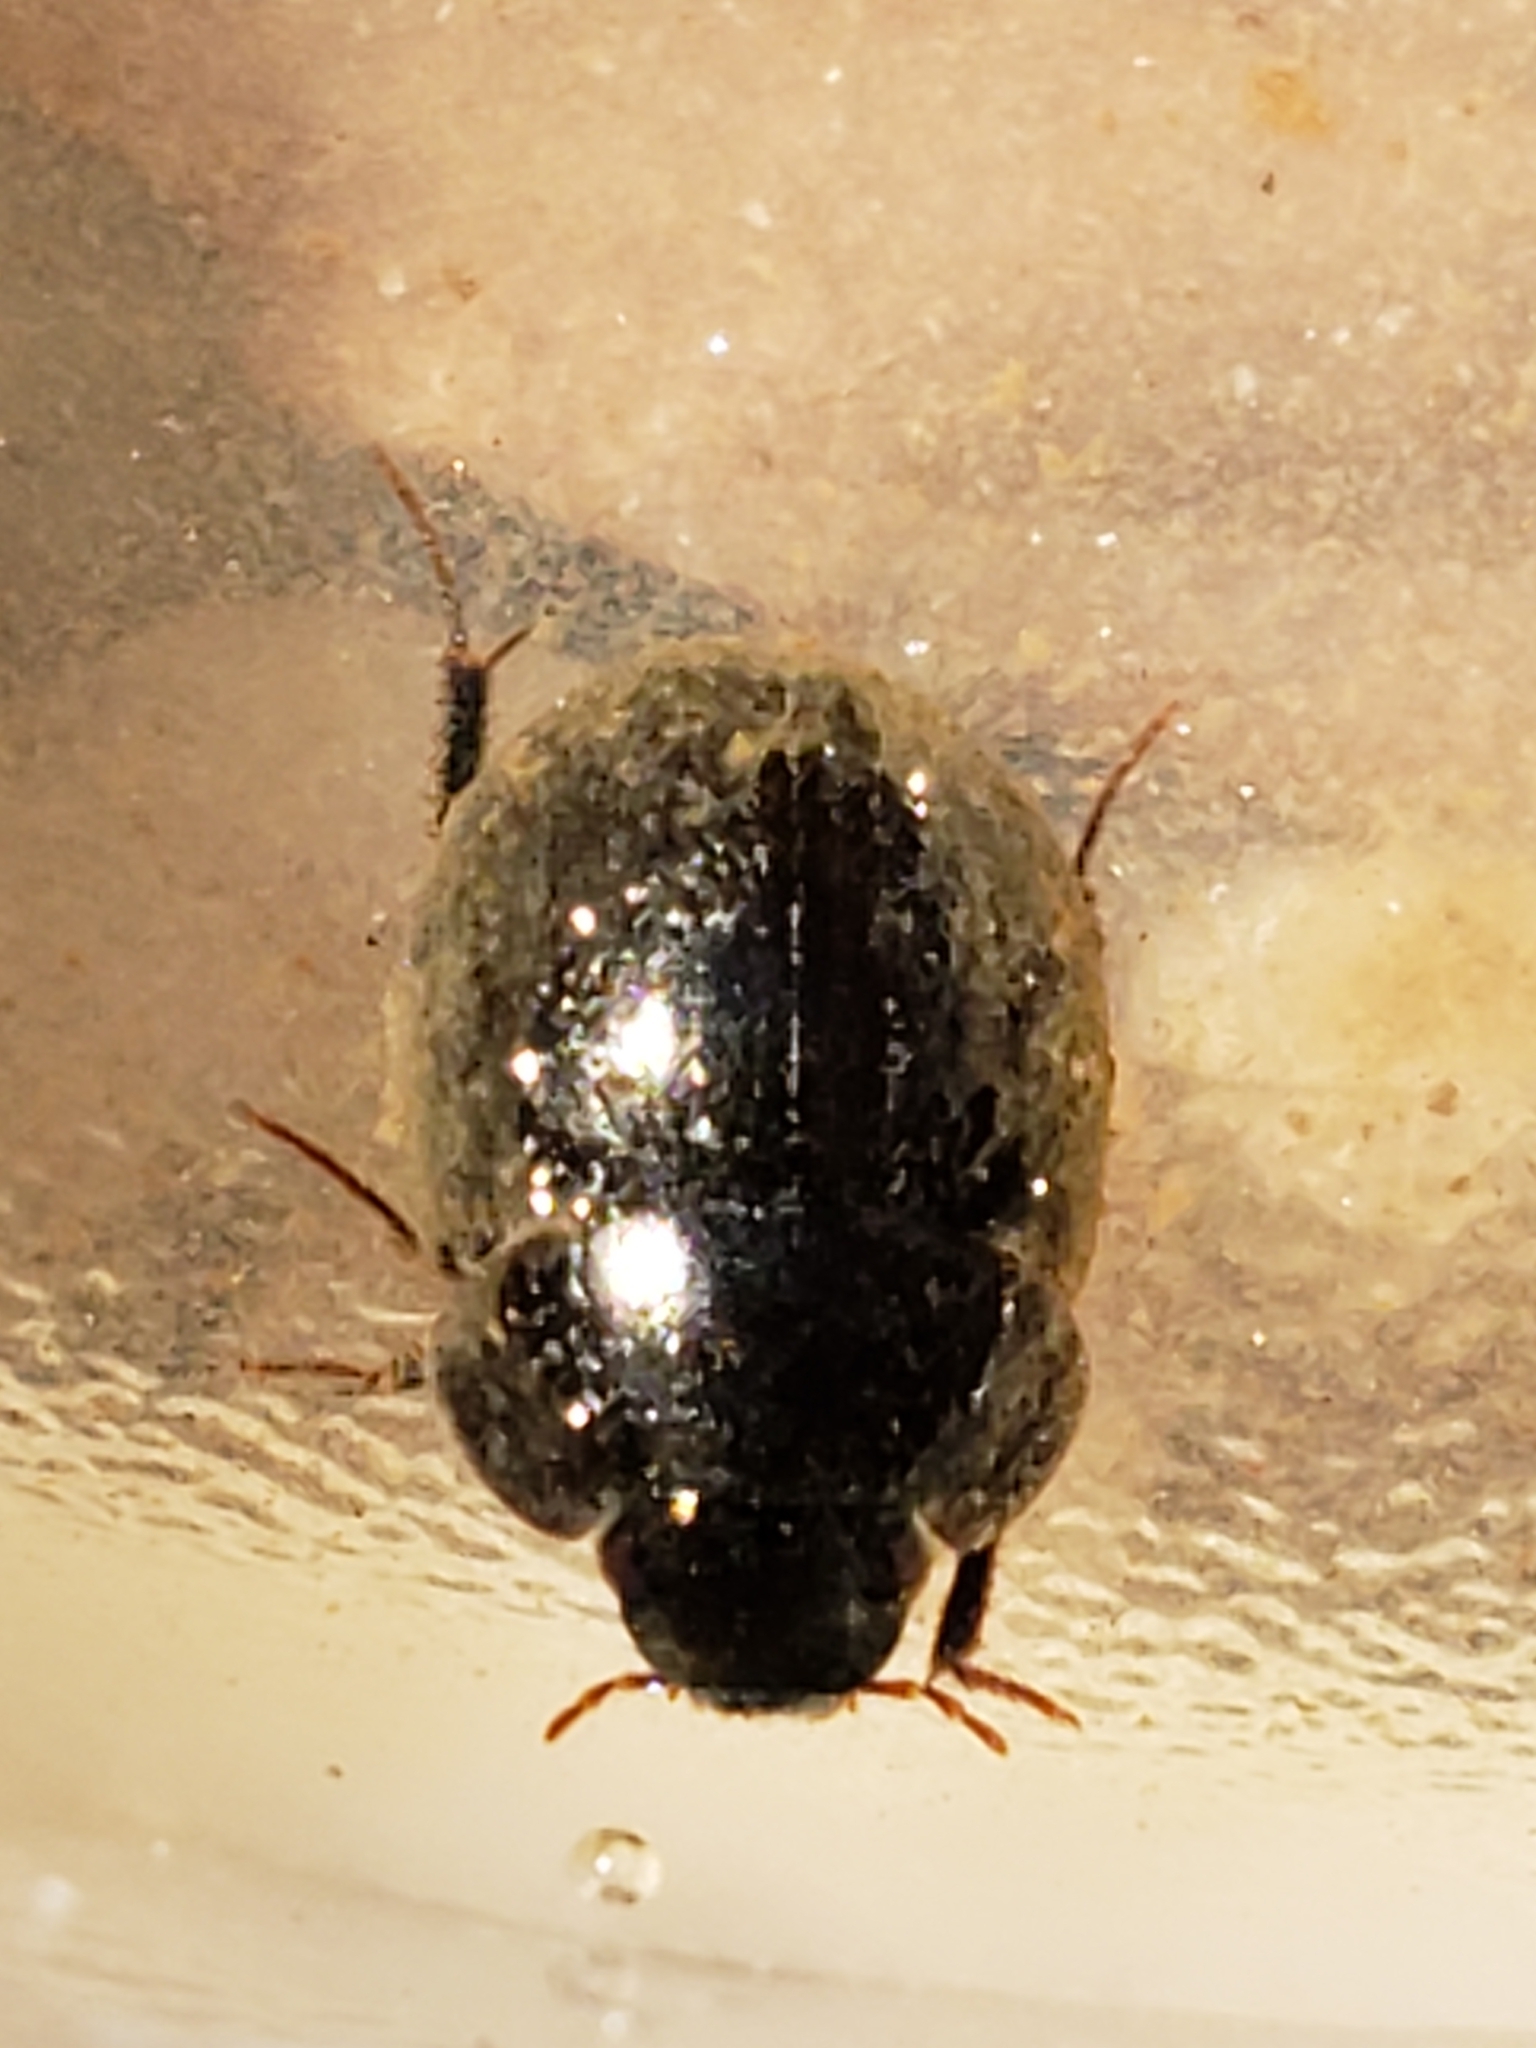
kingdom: Animalia
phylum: Arthropoda
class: Insecta
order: Coleoptera
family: Hydrophilidae
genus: Limnohydrobius
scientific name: Limnohydrobius melaenus
